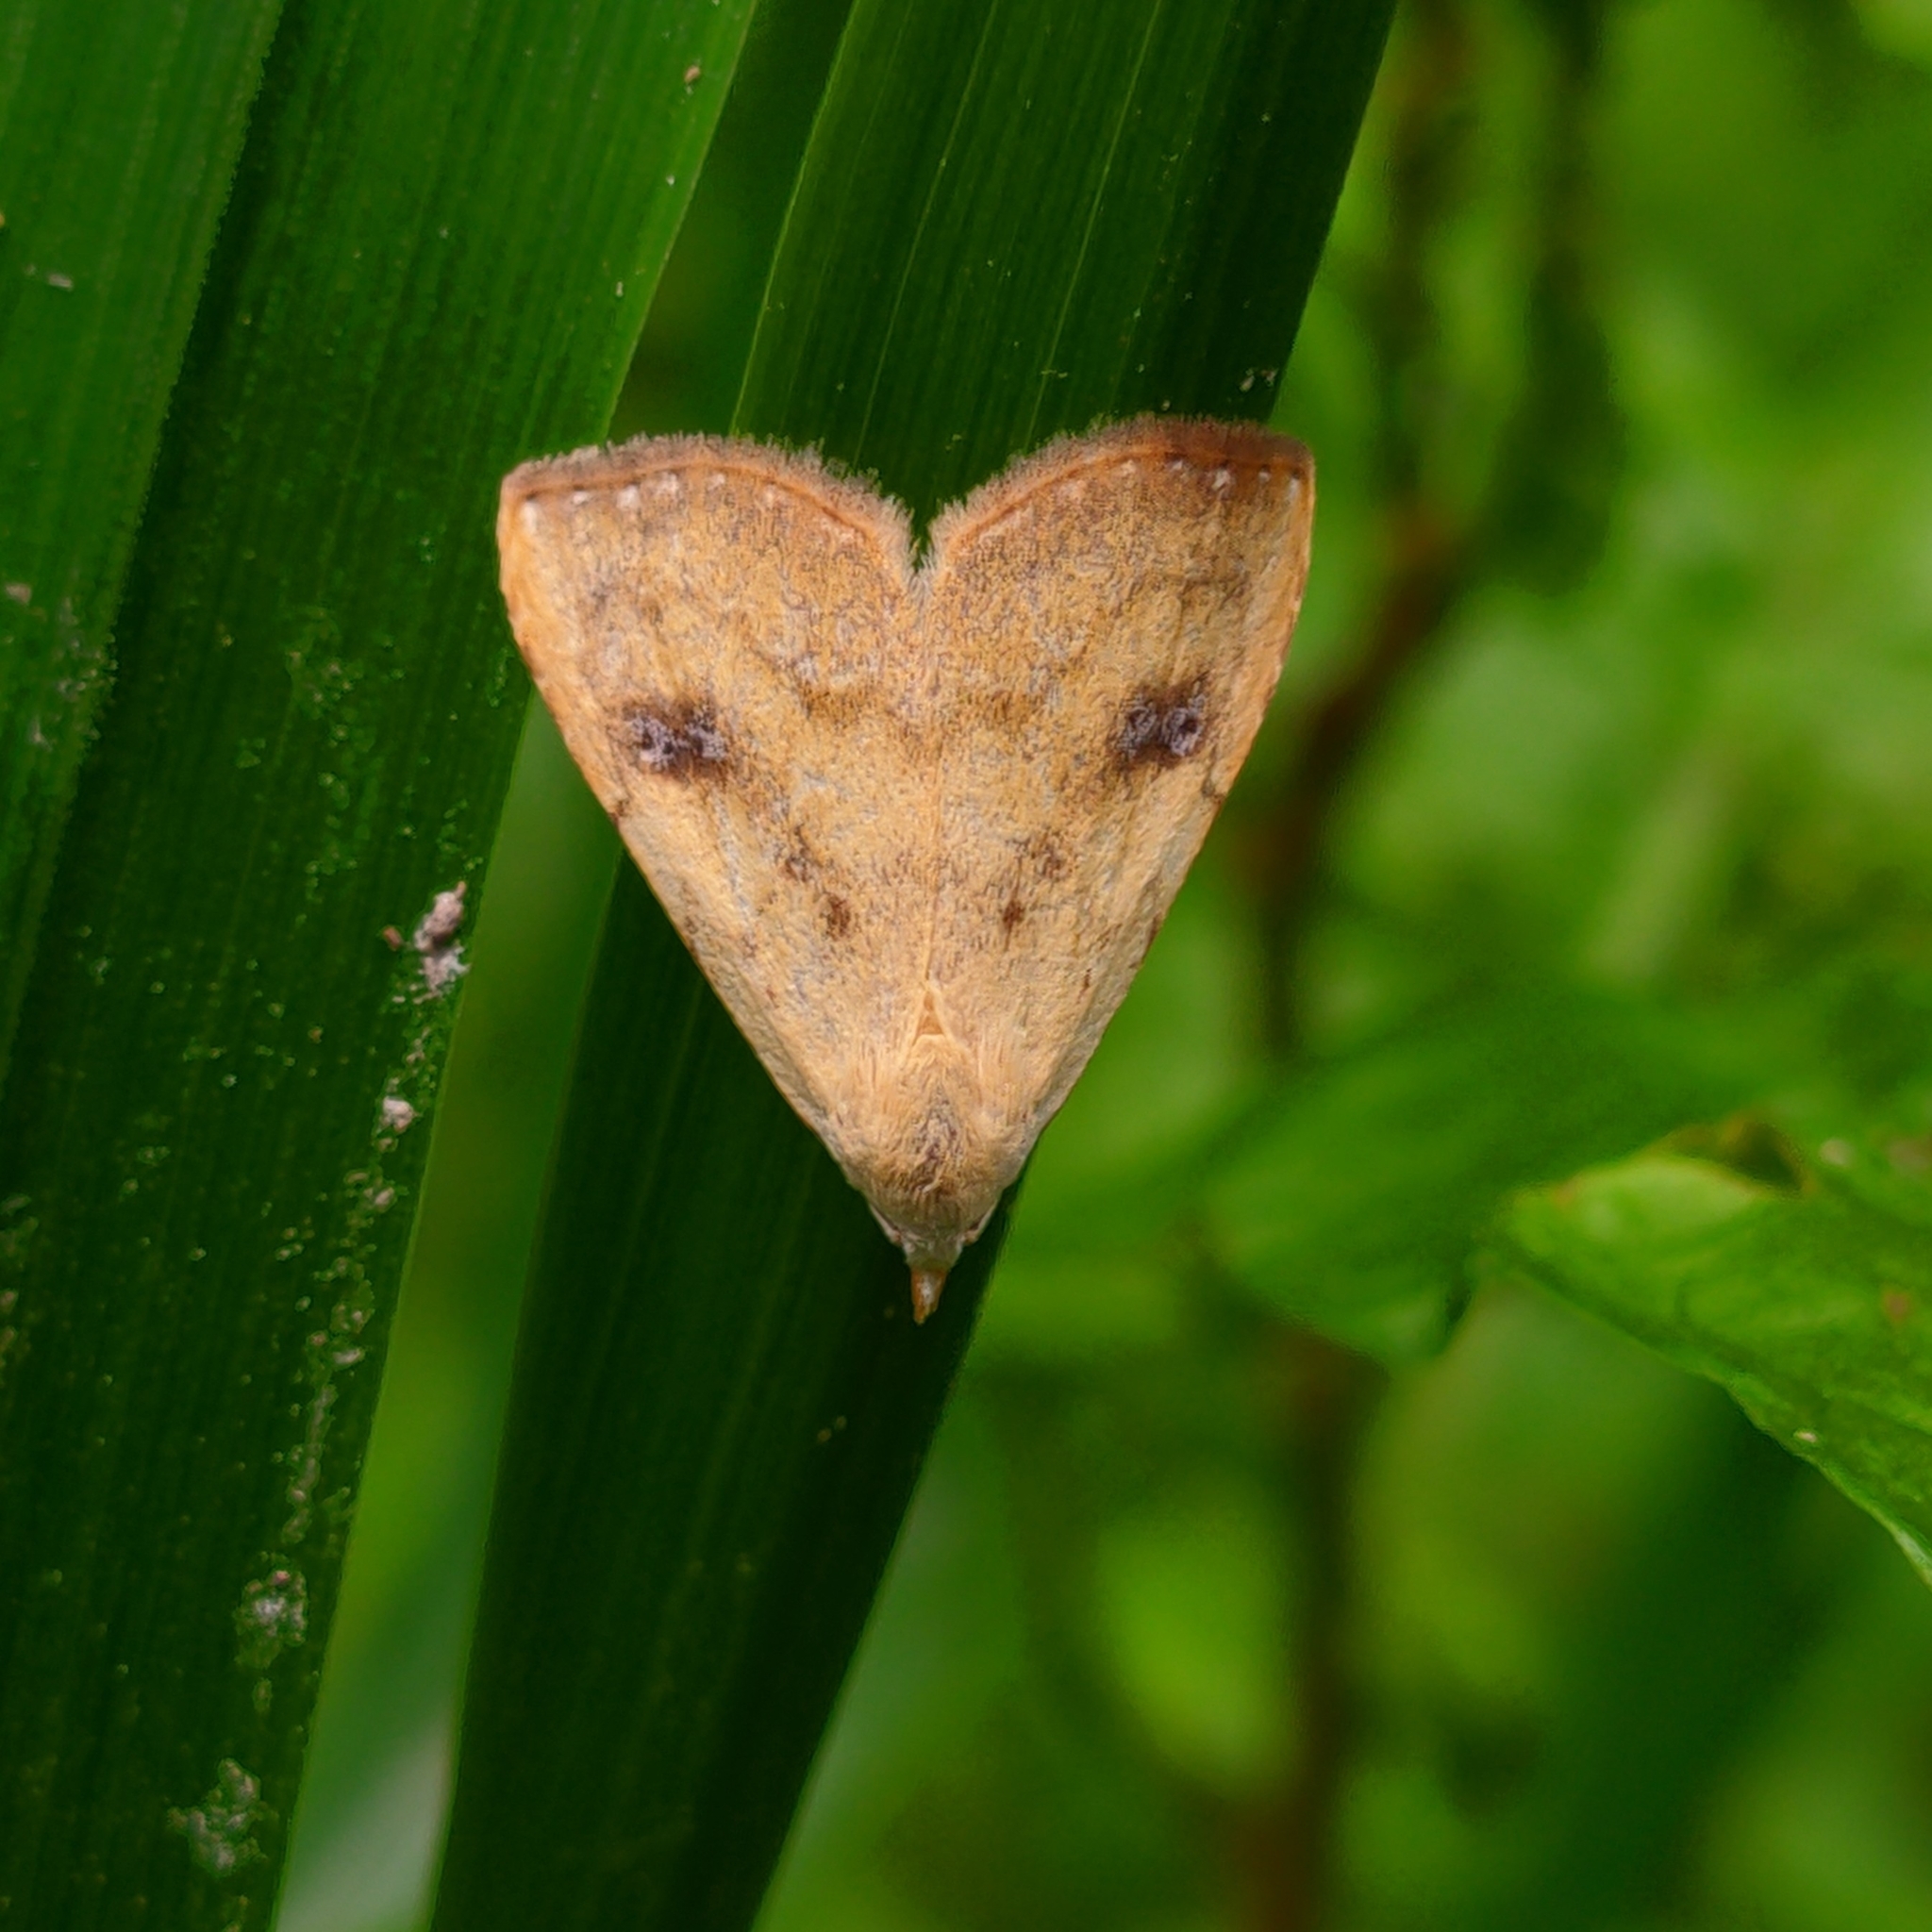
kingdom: Animalia
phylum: Arthropoda
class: Insecta
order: Lepidoptera
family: Erebidae
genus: Rivula
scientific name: Rivula sericealis
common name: Straw dot
